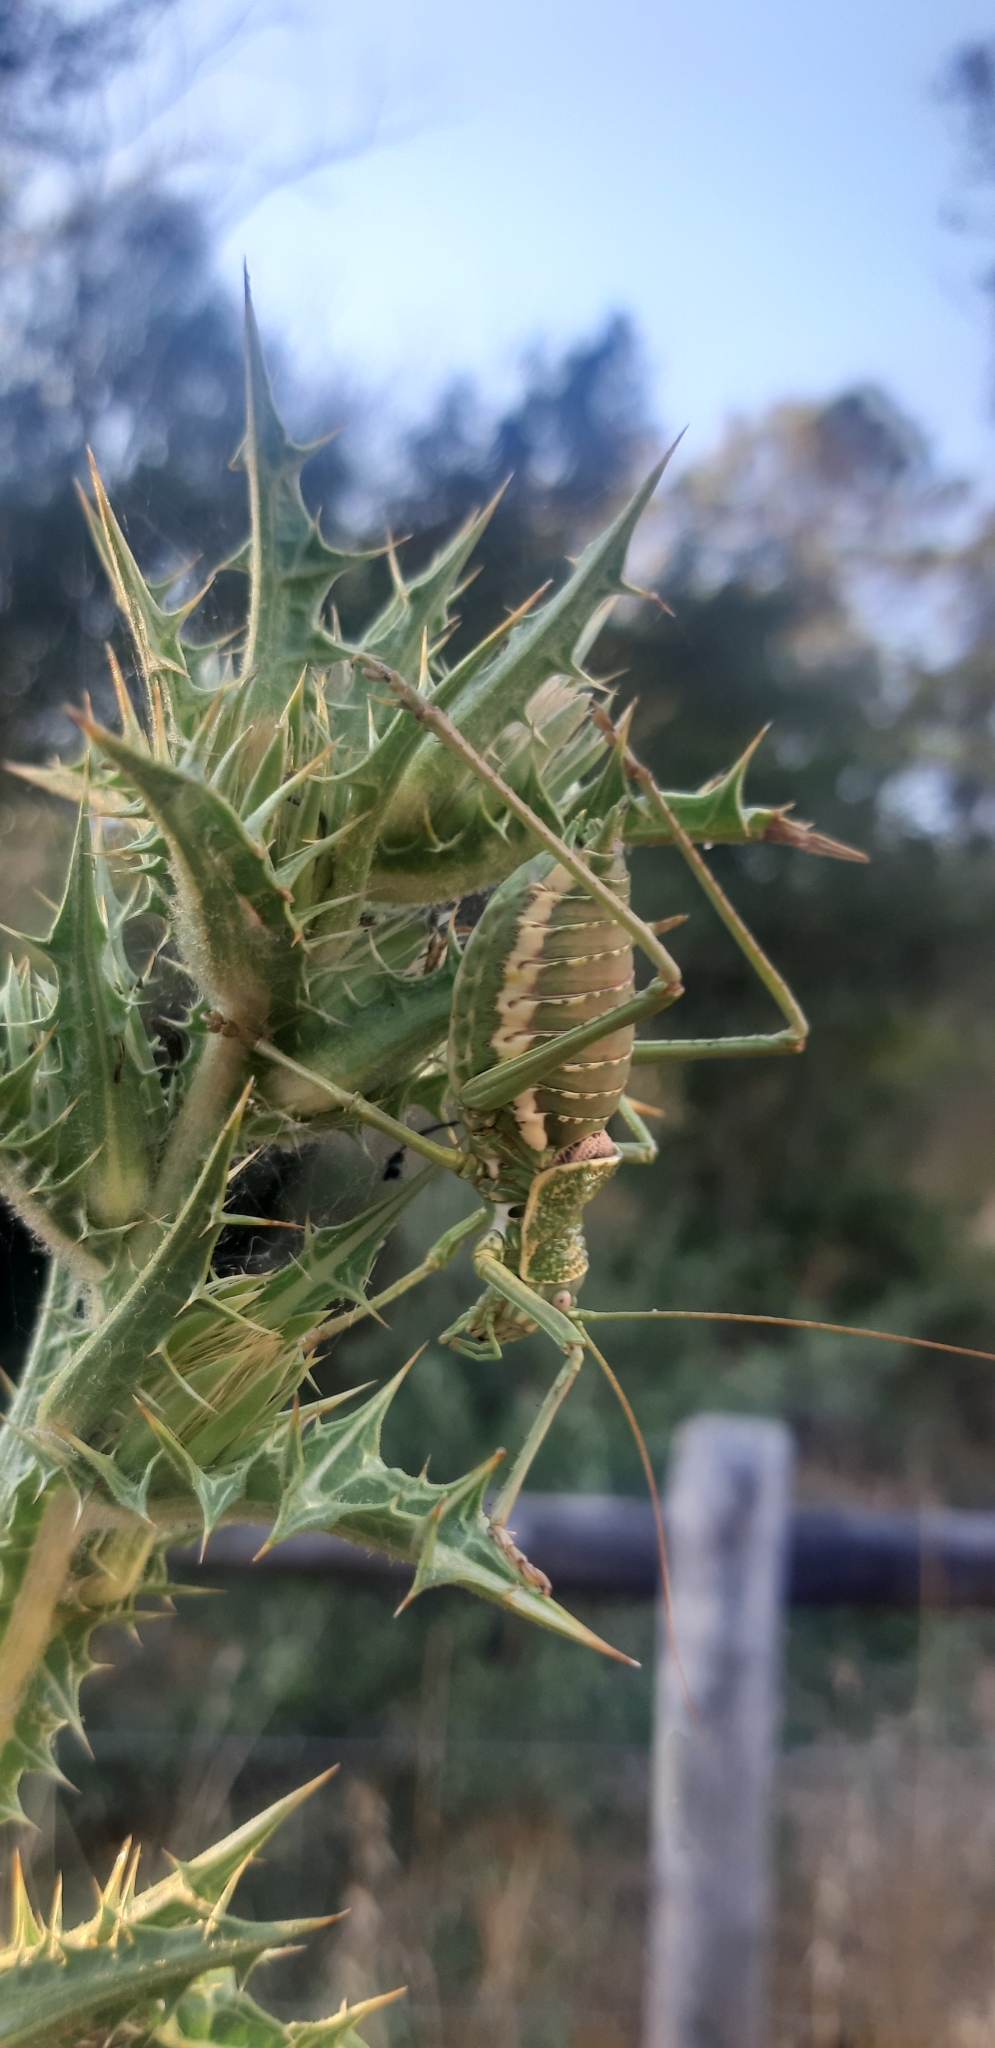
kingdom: Animalia
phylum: Arthropoda
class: Insecta
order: Orthoptera
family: Tettigoniidae
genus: Uromenus
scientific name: Uromenus elegans
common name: Elegant saddle bush-cricket
